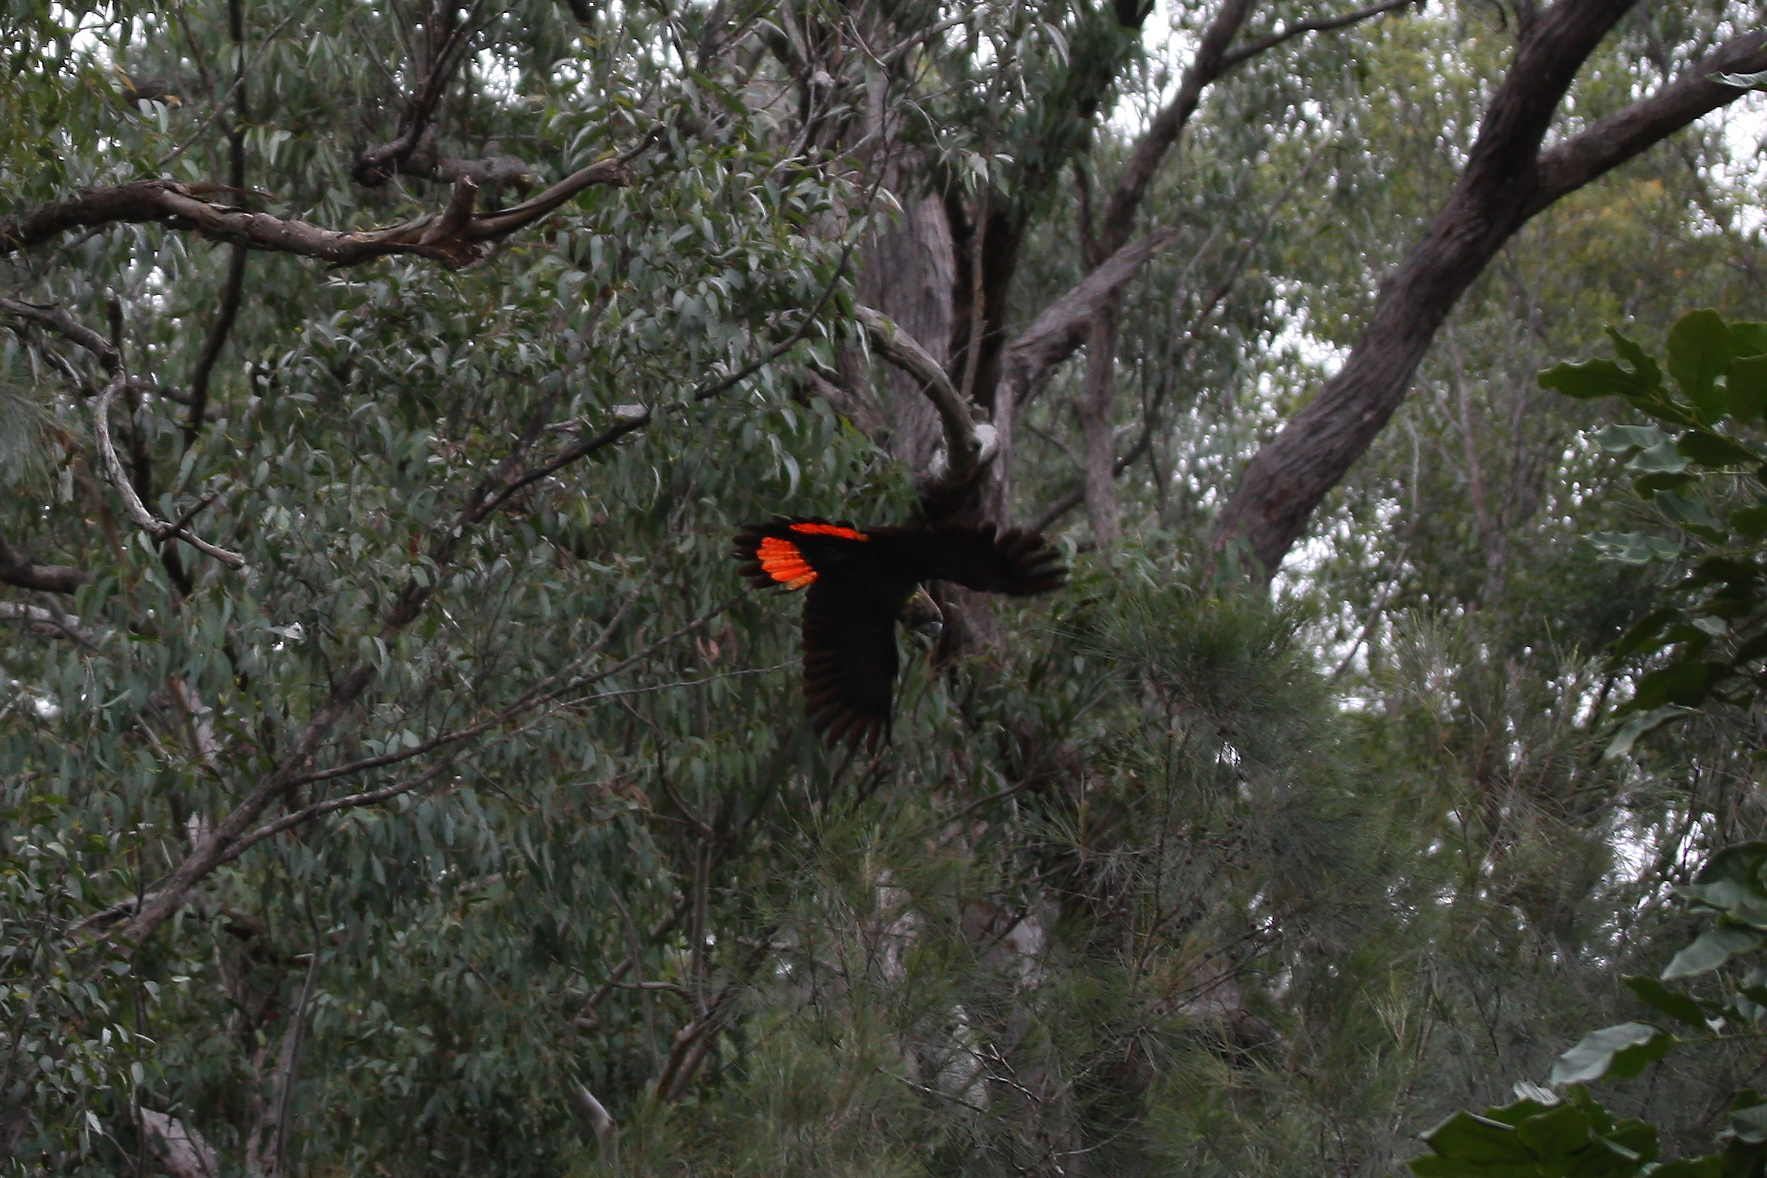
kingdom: Animalia
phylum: Chordata
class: Aves
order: Psittaciformes
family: Psittacidae
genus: Calyptorhynchus
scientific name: Calyptorhynchus lathami
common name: Glossy black cockatoo
